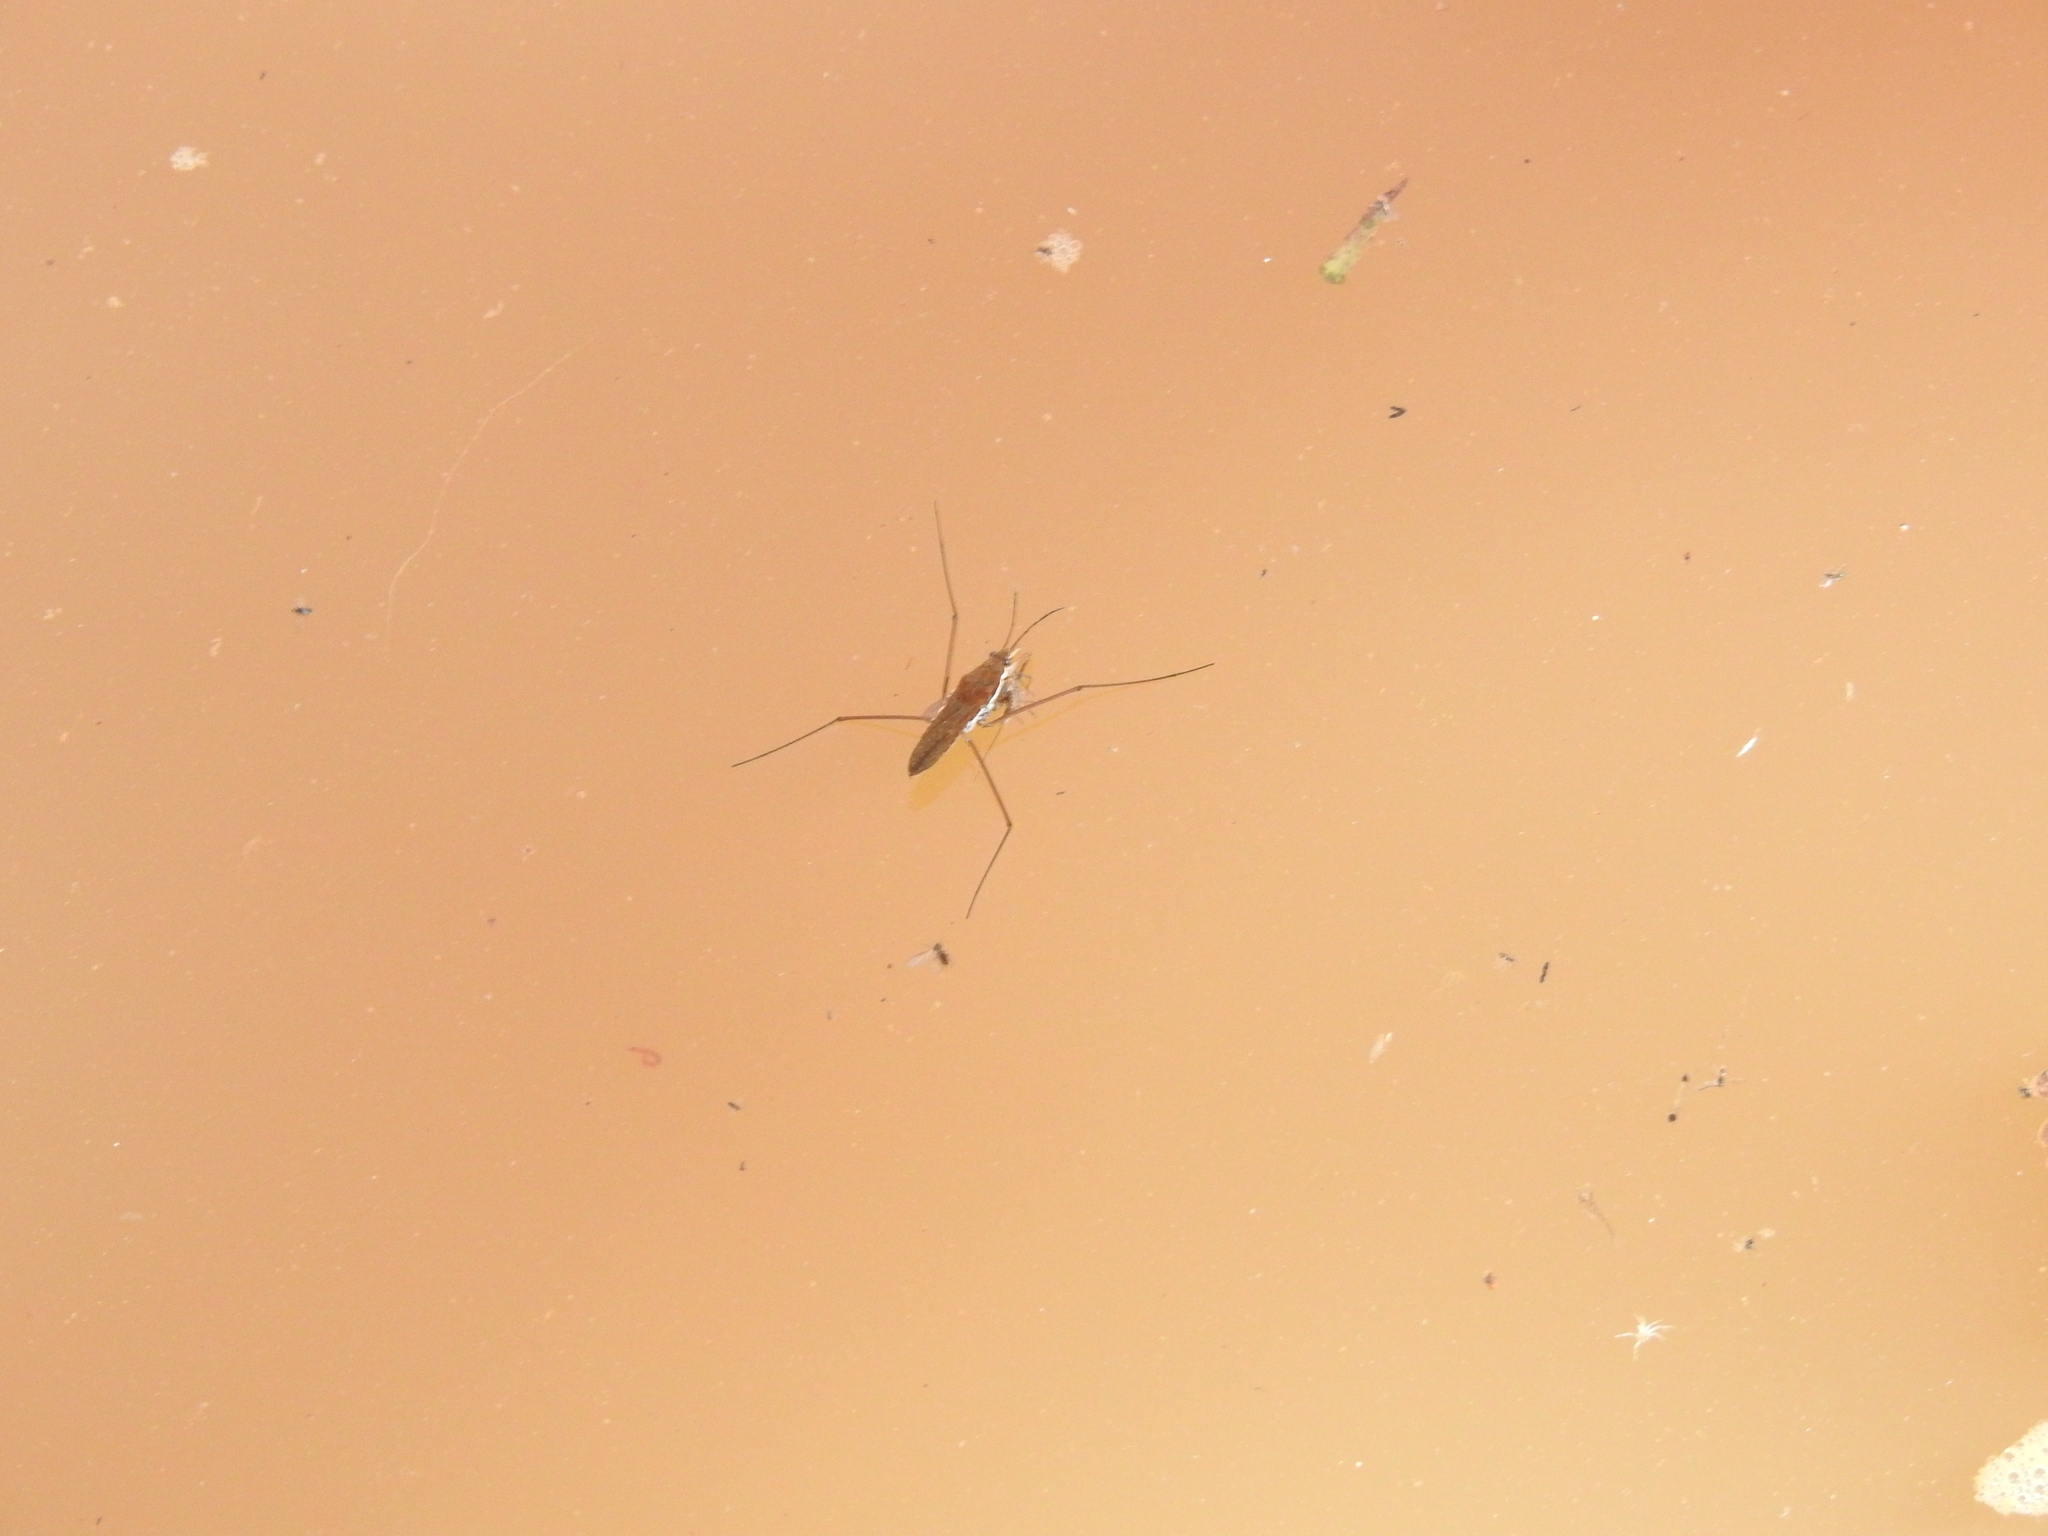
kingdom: Animalia
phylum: Arthropoda
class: Insecta
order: Hemiptera
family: Gerridae
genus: Aquarius
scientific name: Aquarius remigis
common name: Common water strider
